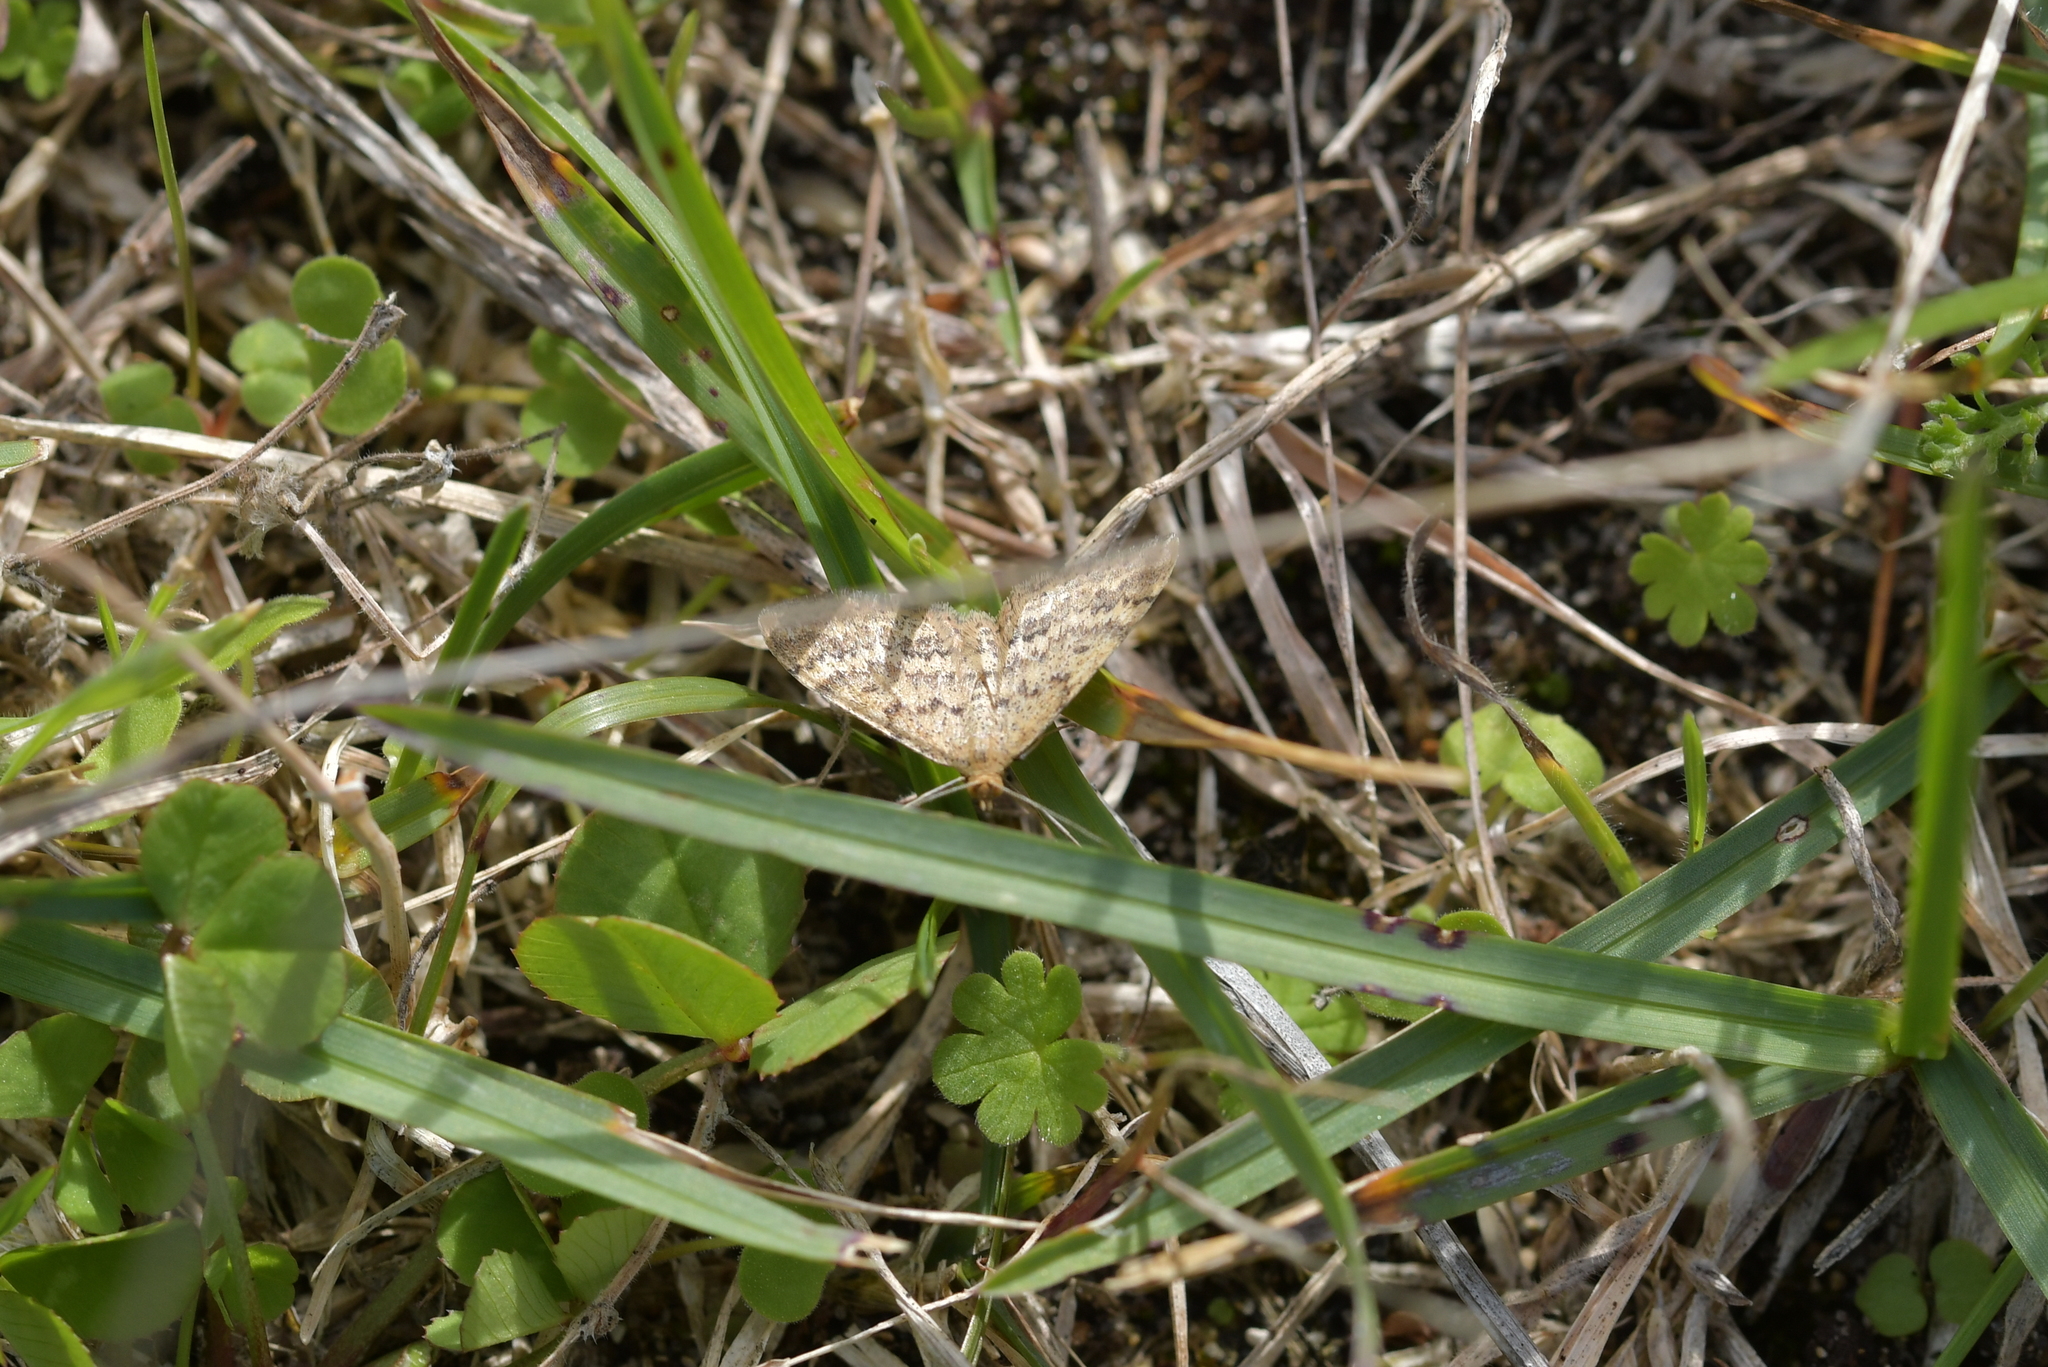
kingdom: Animalia
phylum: Arthropoda
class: Insecta
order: Lepidoptera
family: Geometridae
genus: Scopula
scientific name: Scopula rubraria
